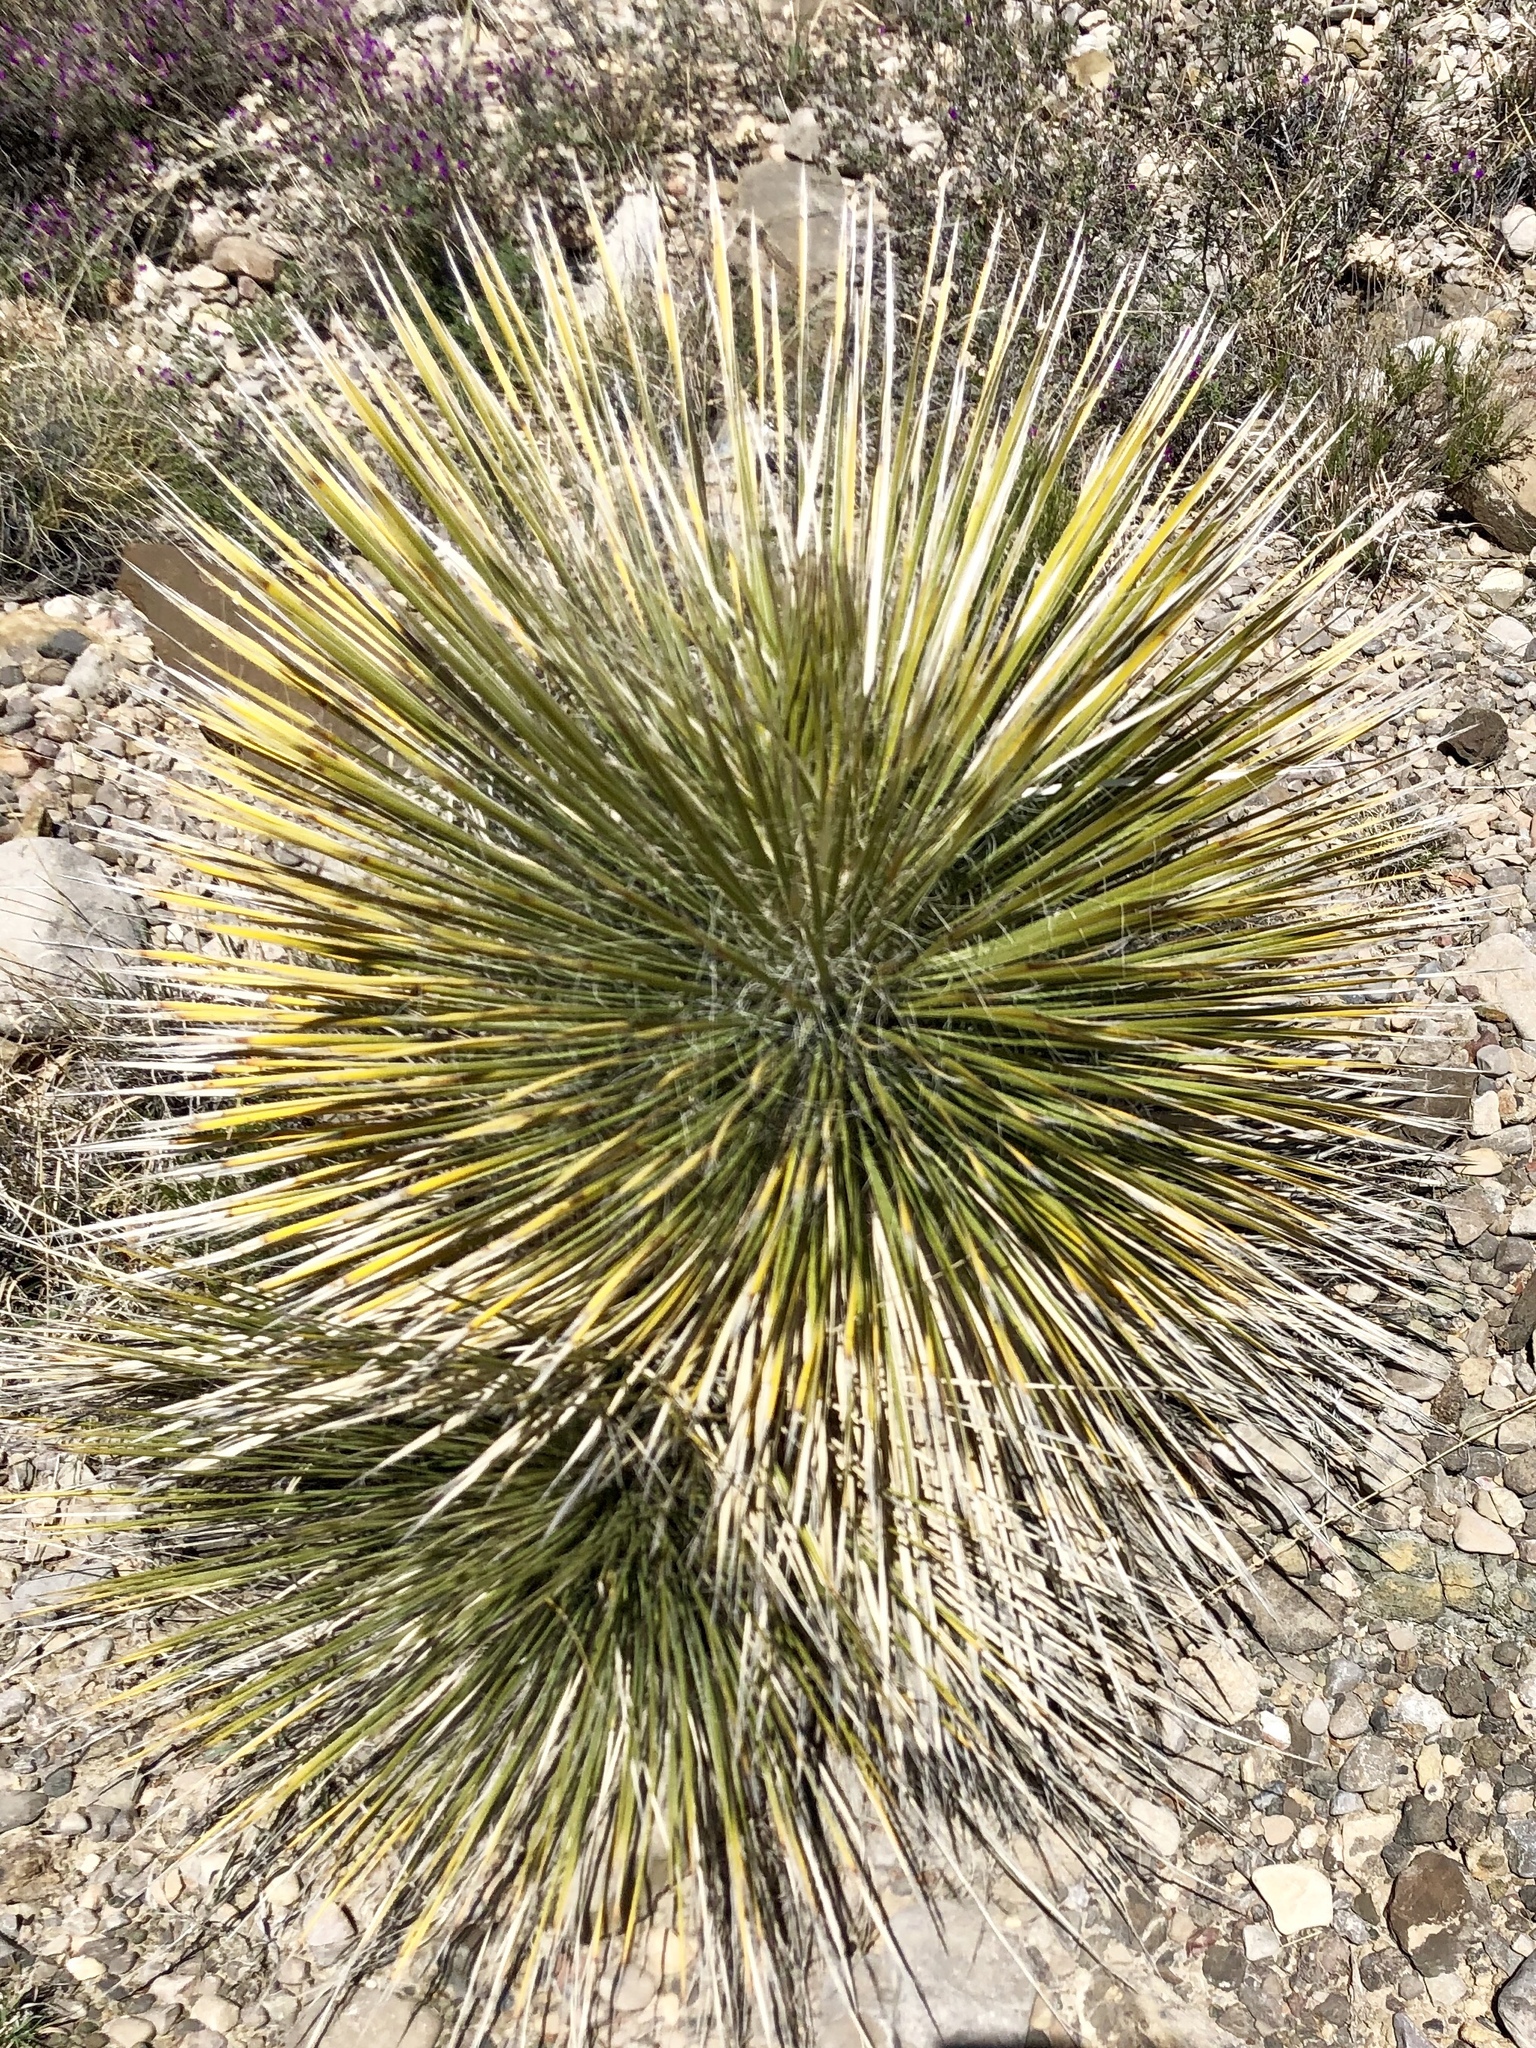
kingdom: Plantae
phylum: Tracheophyta
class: Liliopsida
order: Asparagales
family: Asparagaceae
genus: Yucca
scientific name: Yucca elata
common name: Palmella
